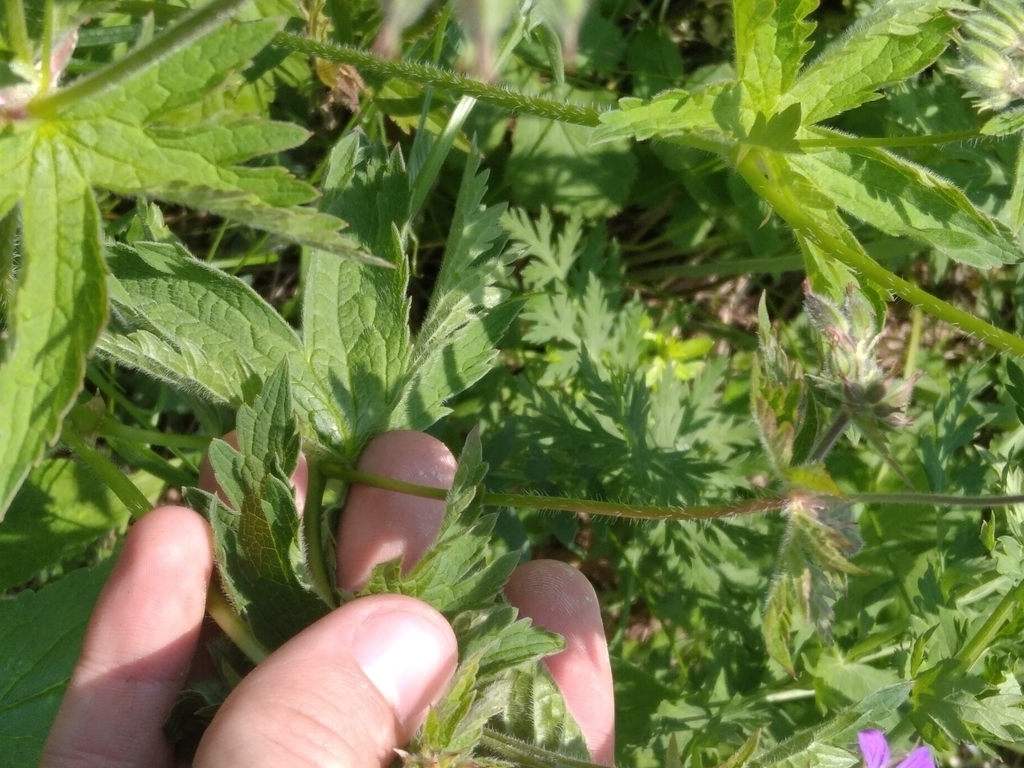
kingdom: Plantae
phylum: Tracheophyta
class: Magnoliopsida
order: Geraniales
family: Geraniaceae
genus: Geranium
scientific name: Geranium sylvaticum
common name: Wood crane's-bill
